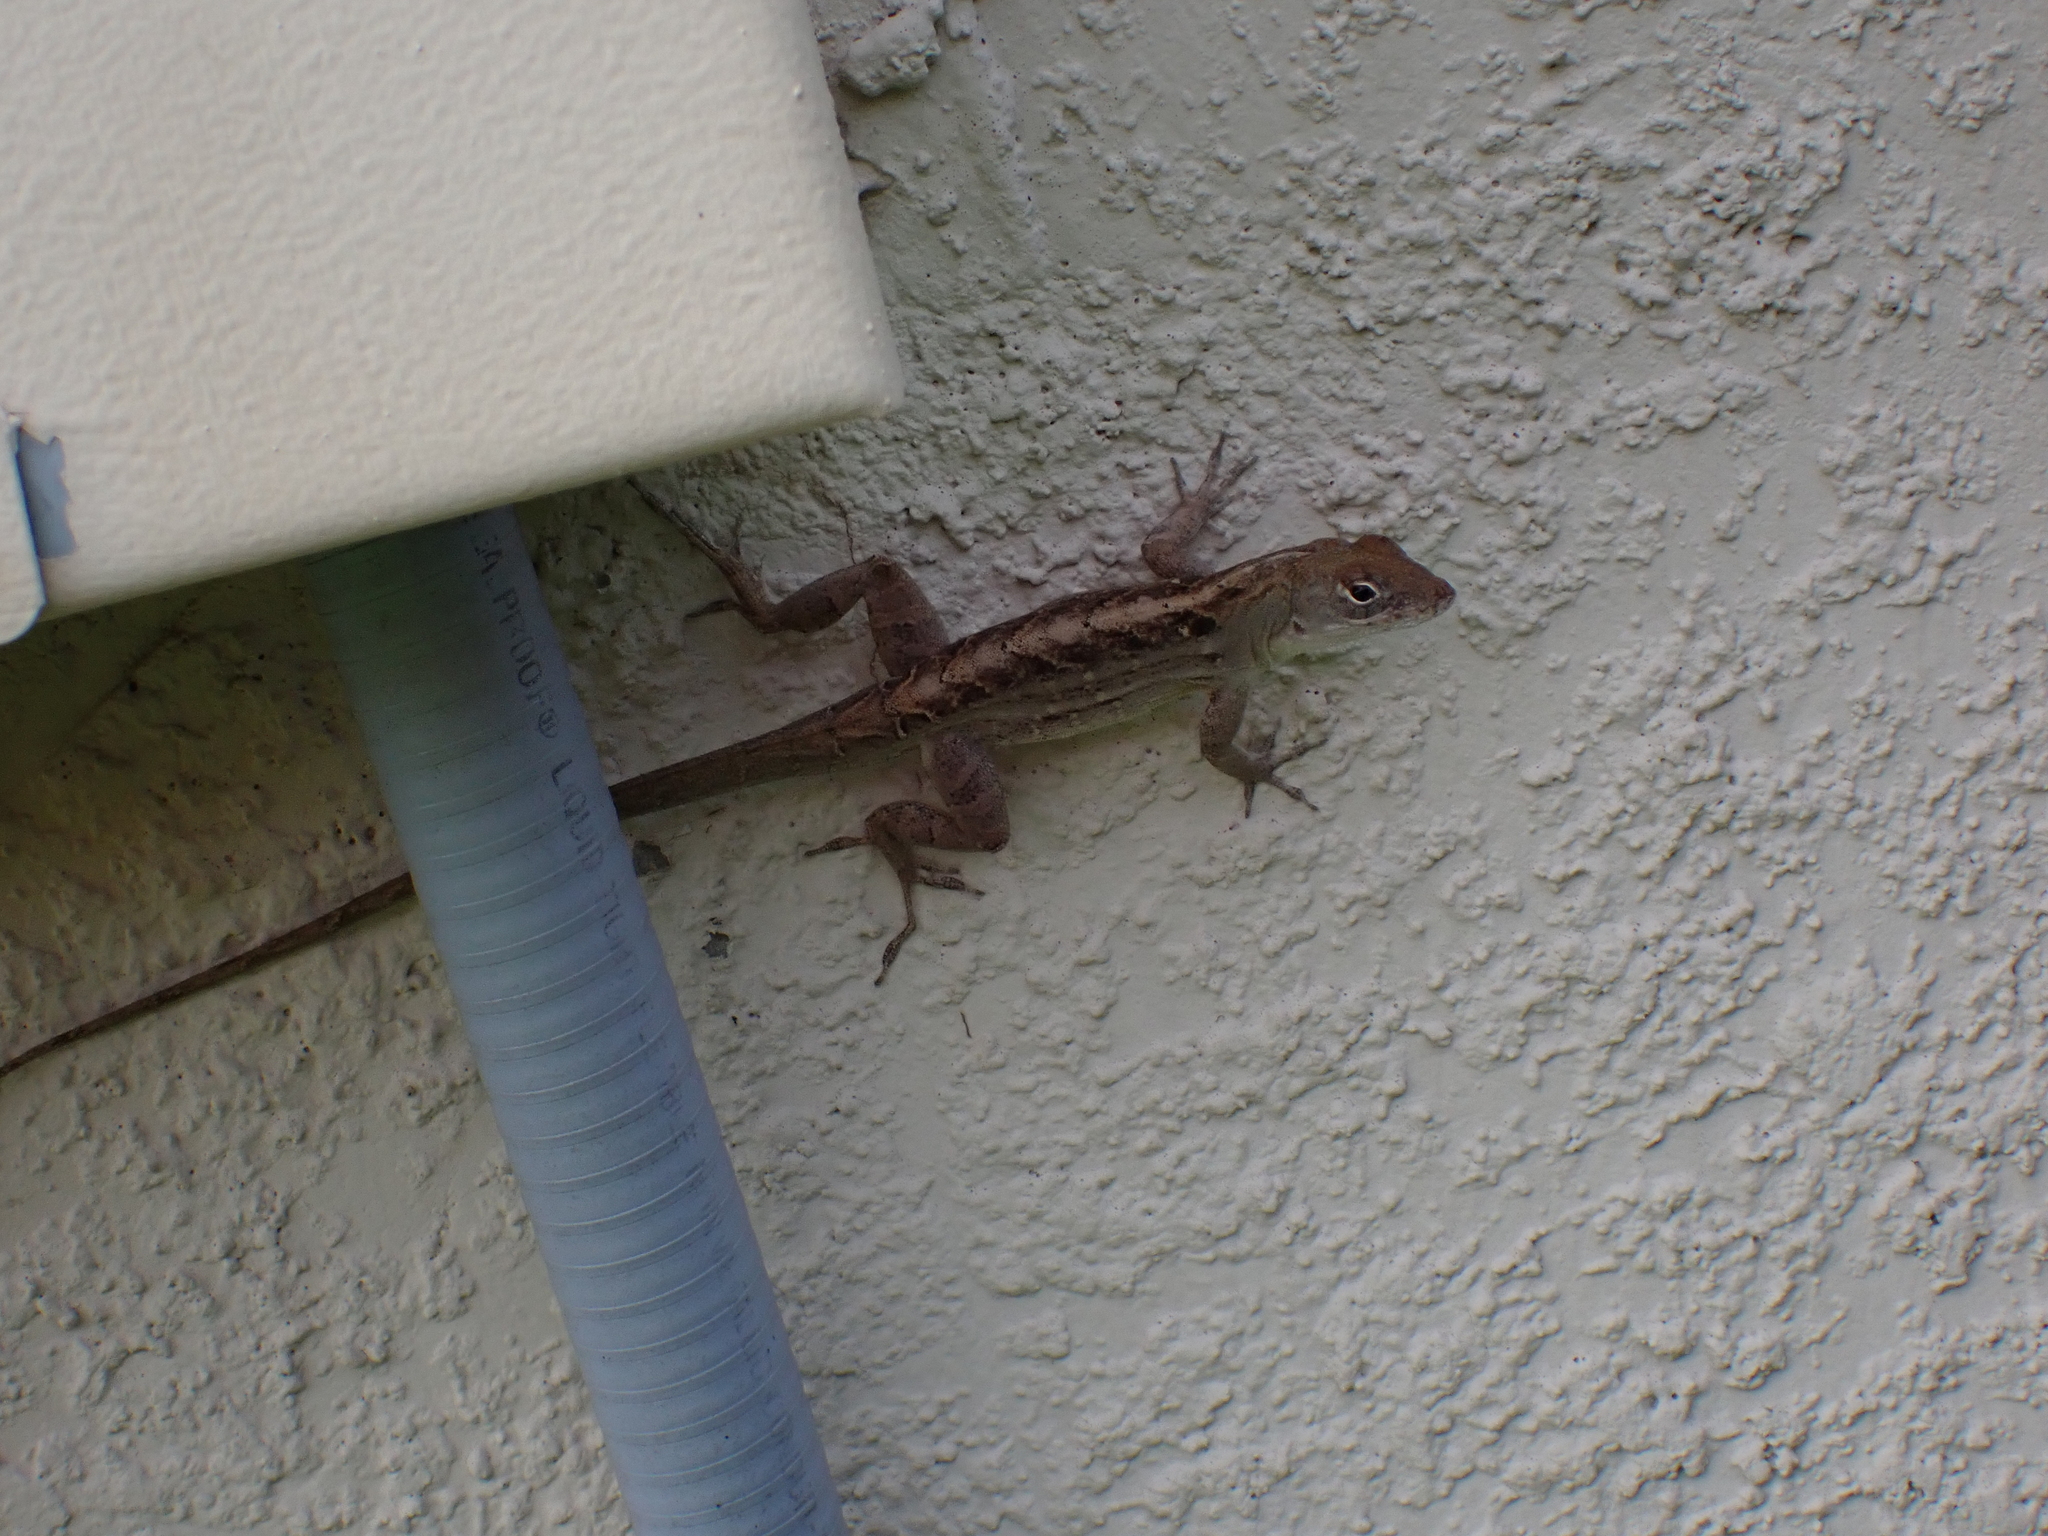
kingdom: Animalia
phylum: Chordata
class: Squamata
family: Dactyloidae
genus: Anolis
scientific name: Anolis sagrei
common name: Brown anole
